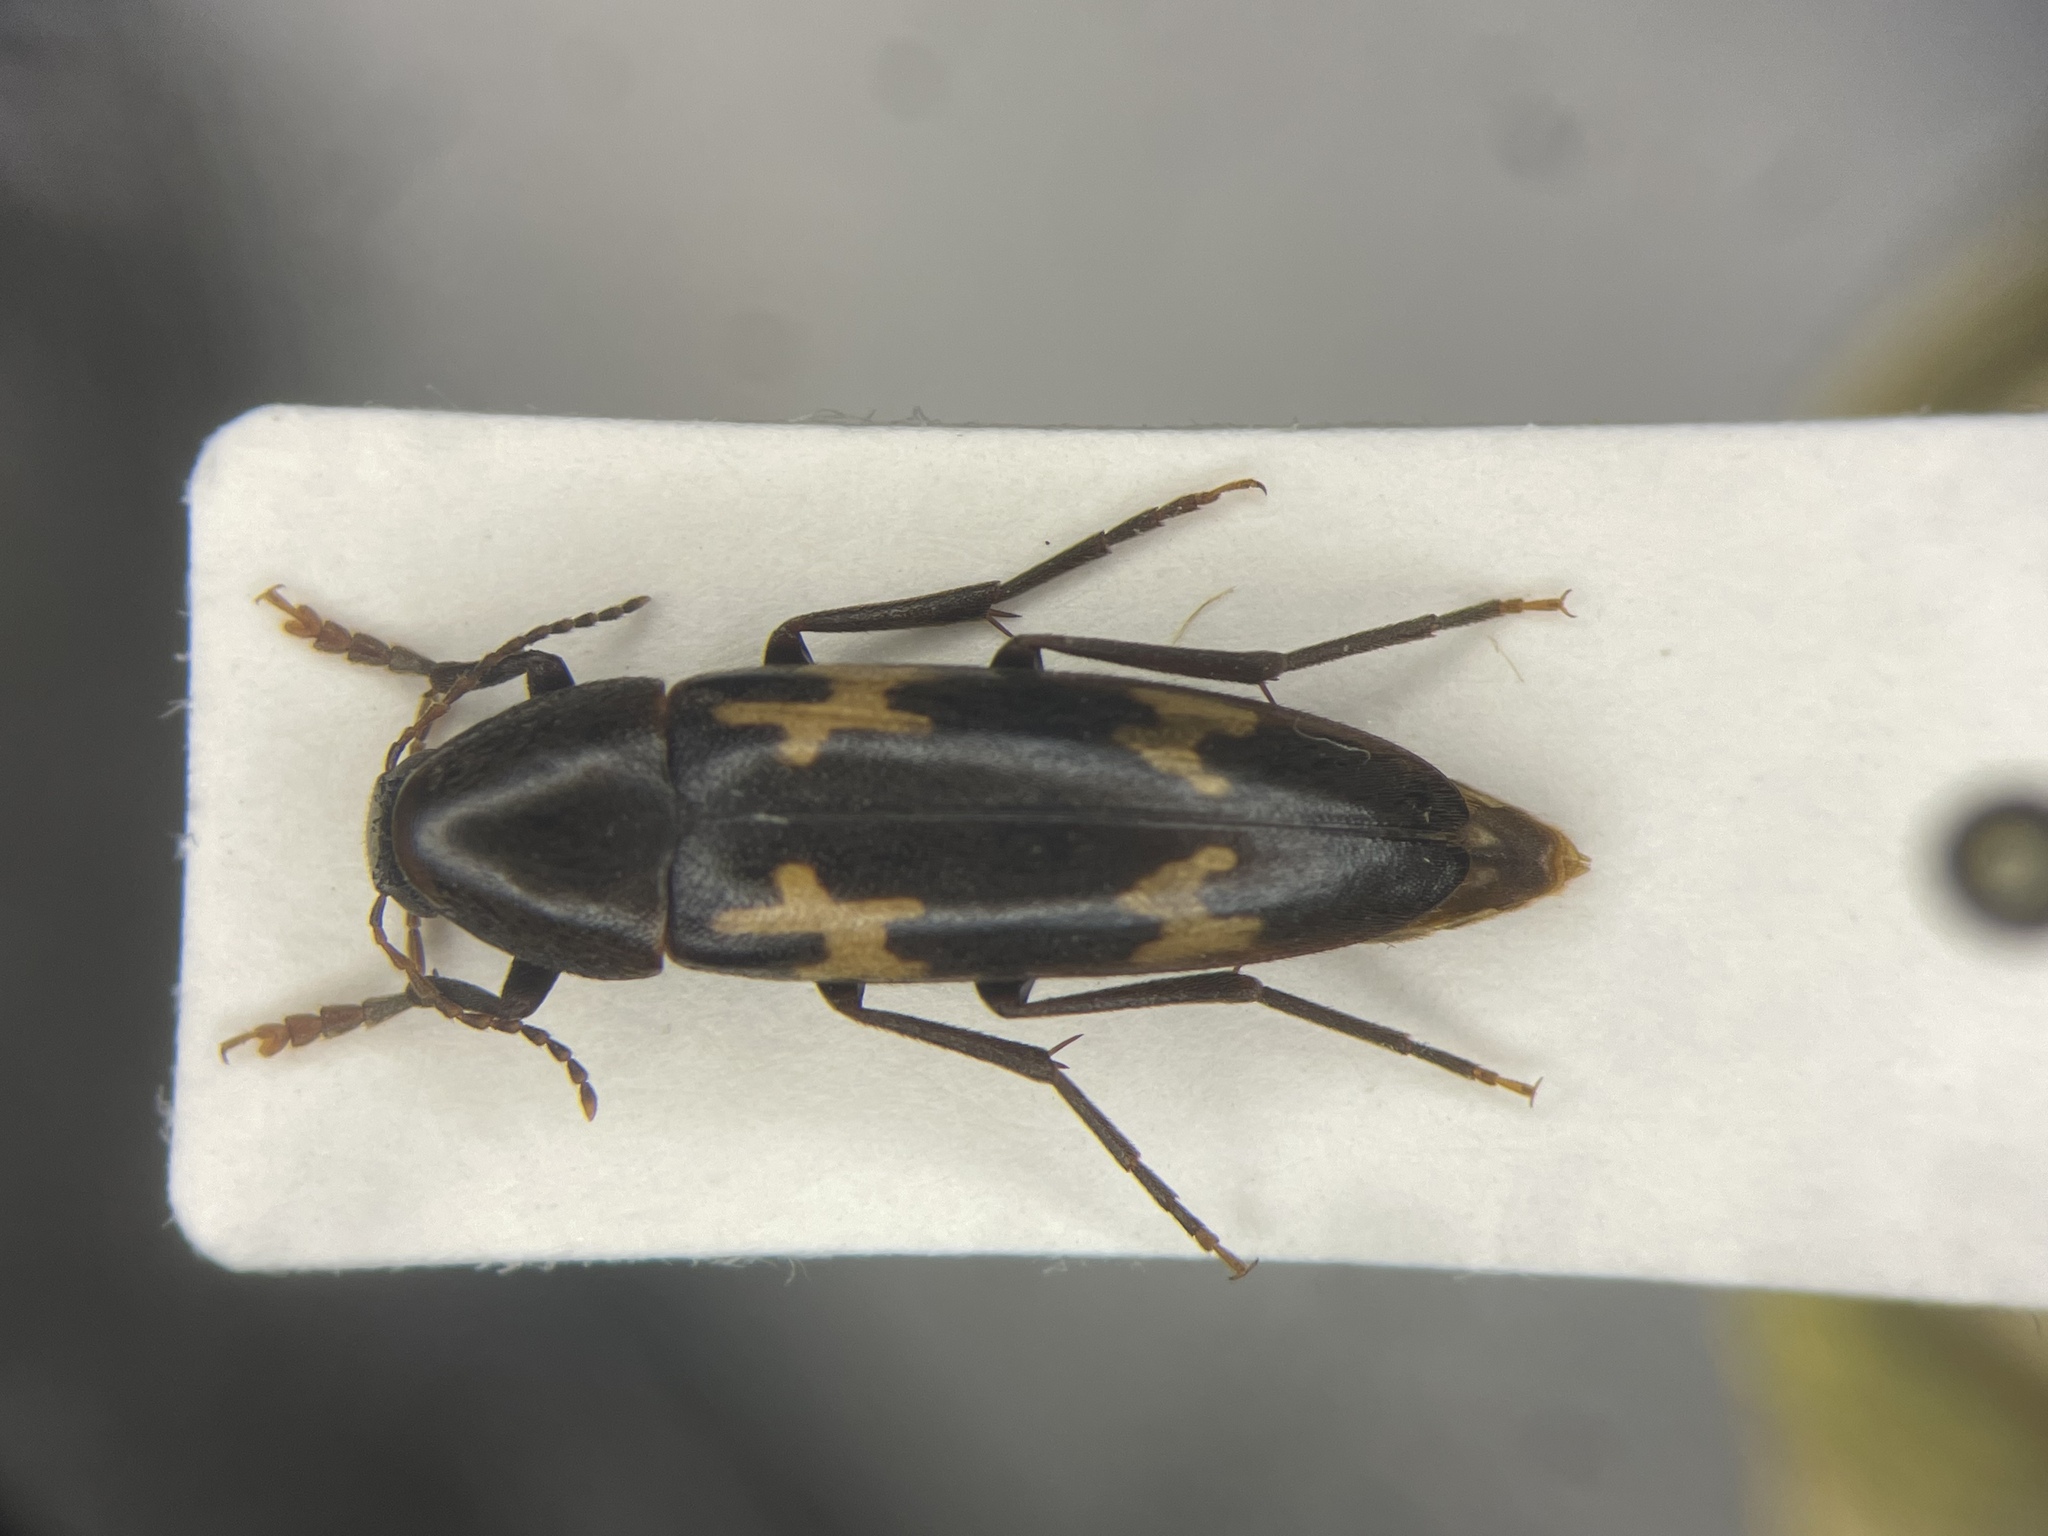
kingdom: Animalia
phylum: Arthropoda
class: Insecta
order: Coleoptera
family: Melandryidae
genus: Dircaea
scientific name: Dircaea liturata
